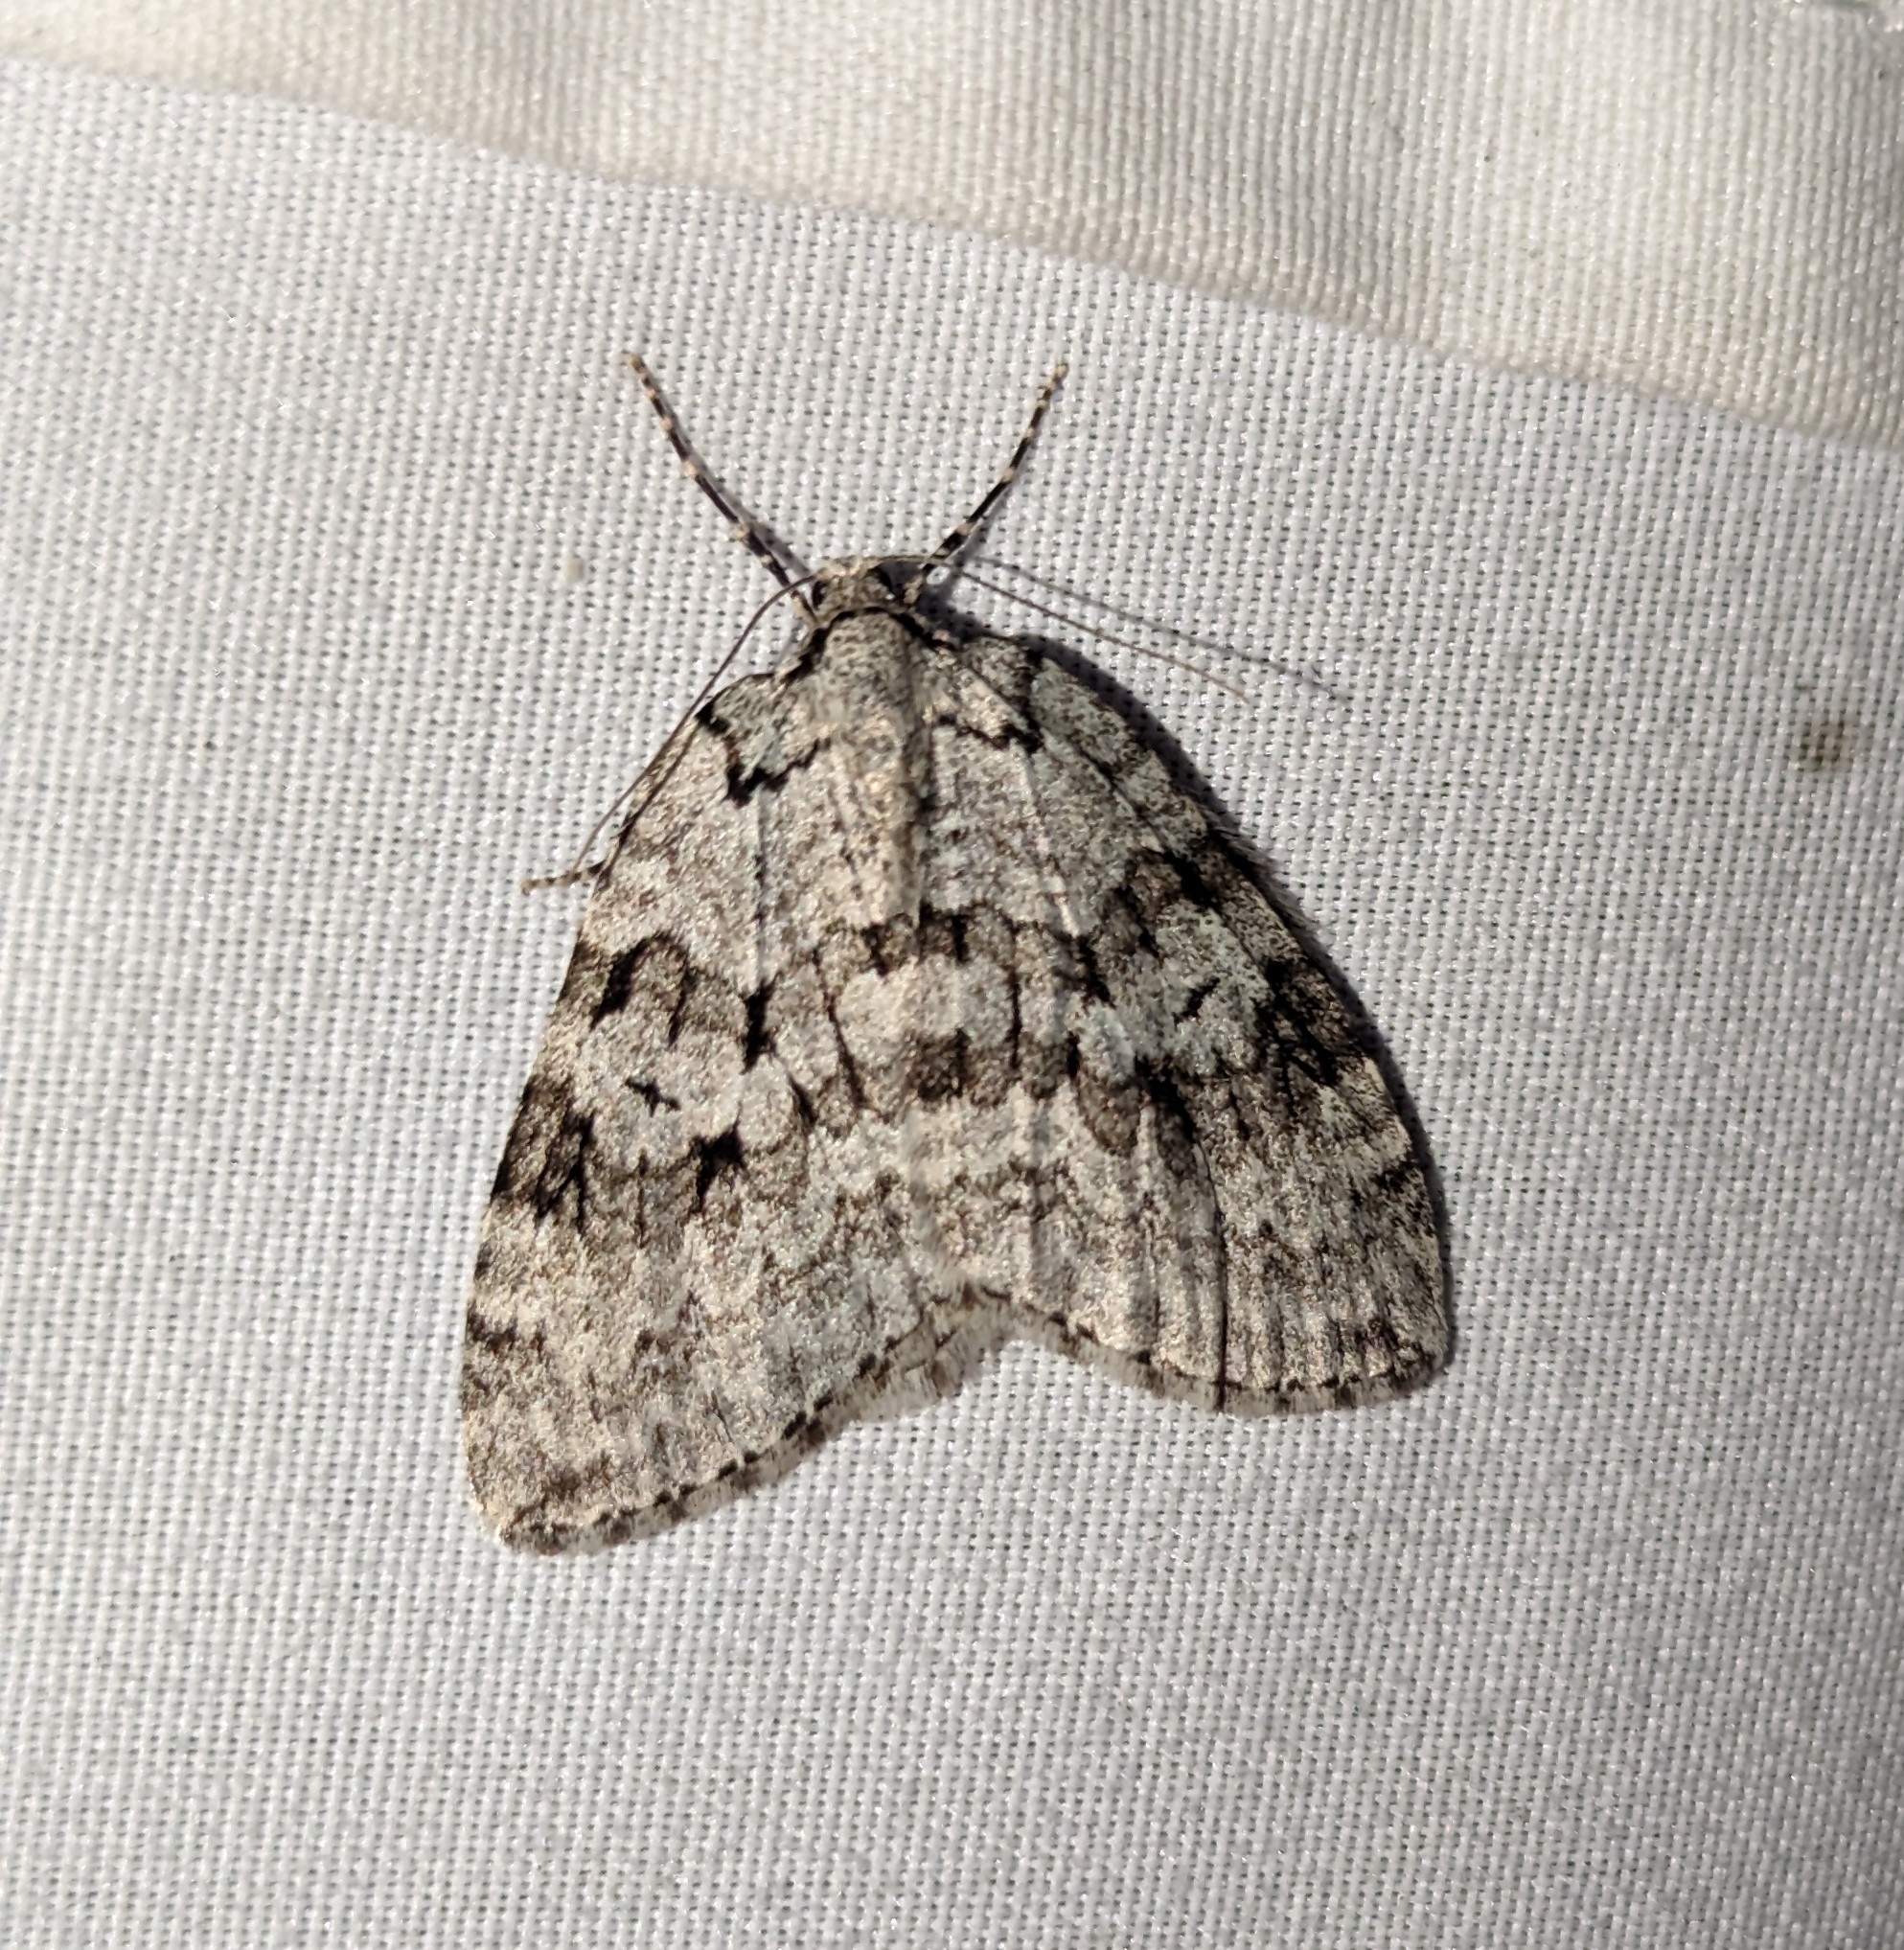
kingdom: Animalia
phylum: Arthropoda
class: Insecta
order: Lepidoptera
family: Geometridae
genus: Epirrita
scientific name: Epirrita autumnata
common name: Autumnal moth
